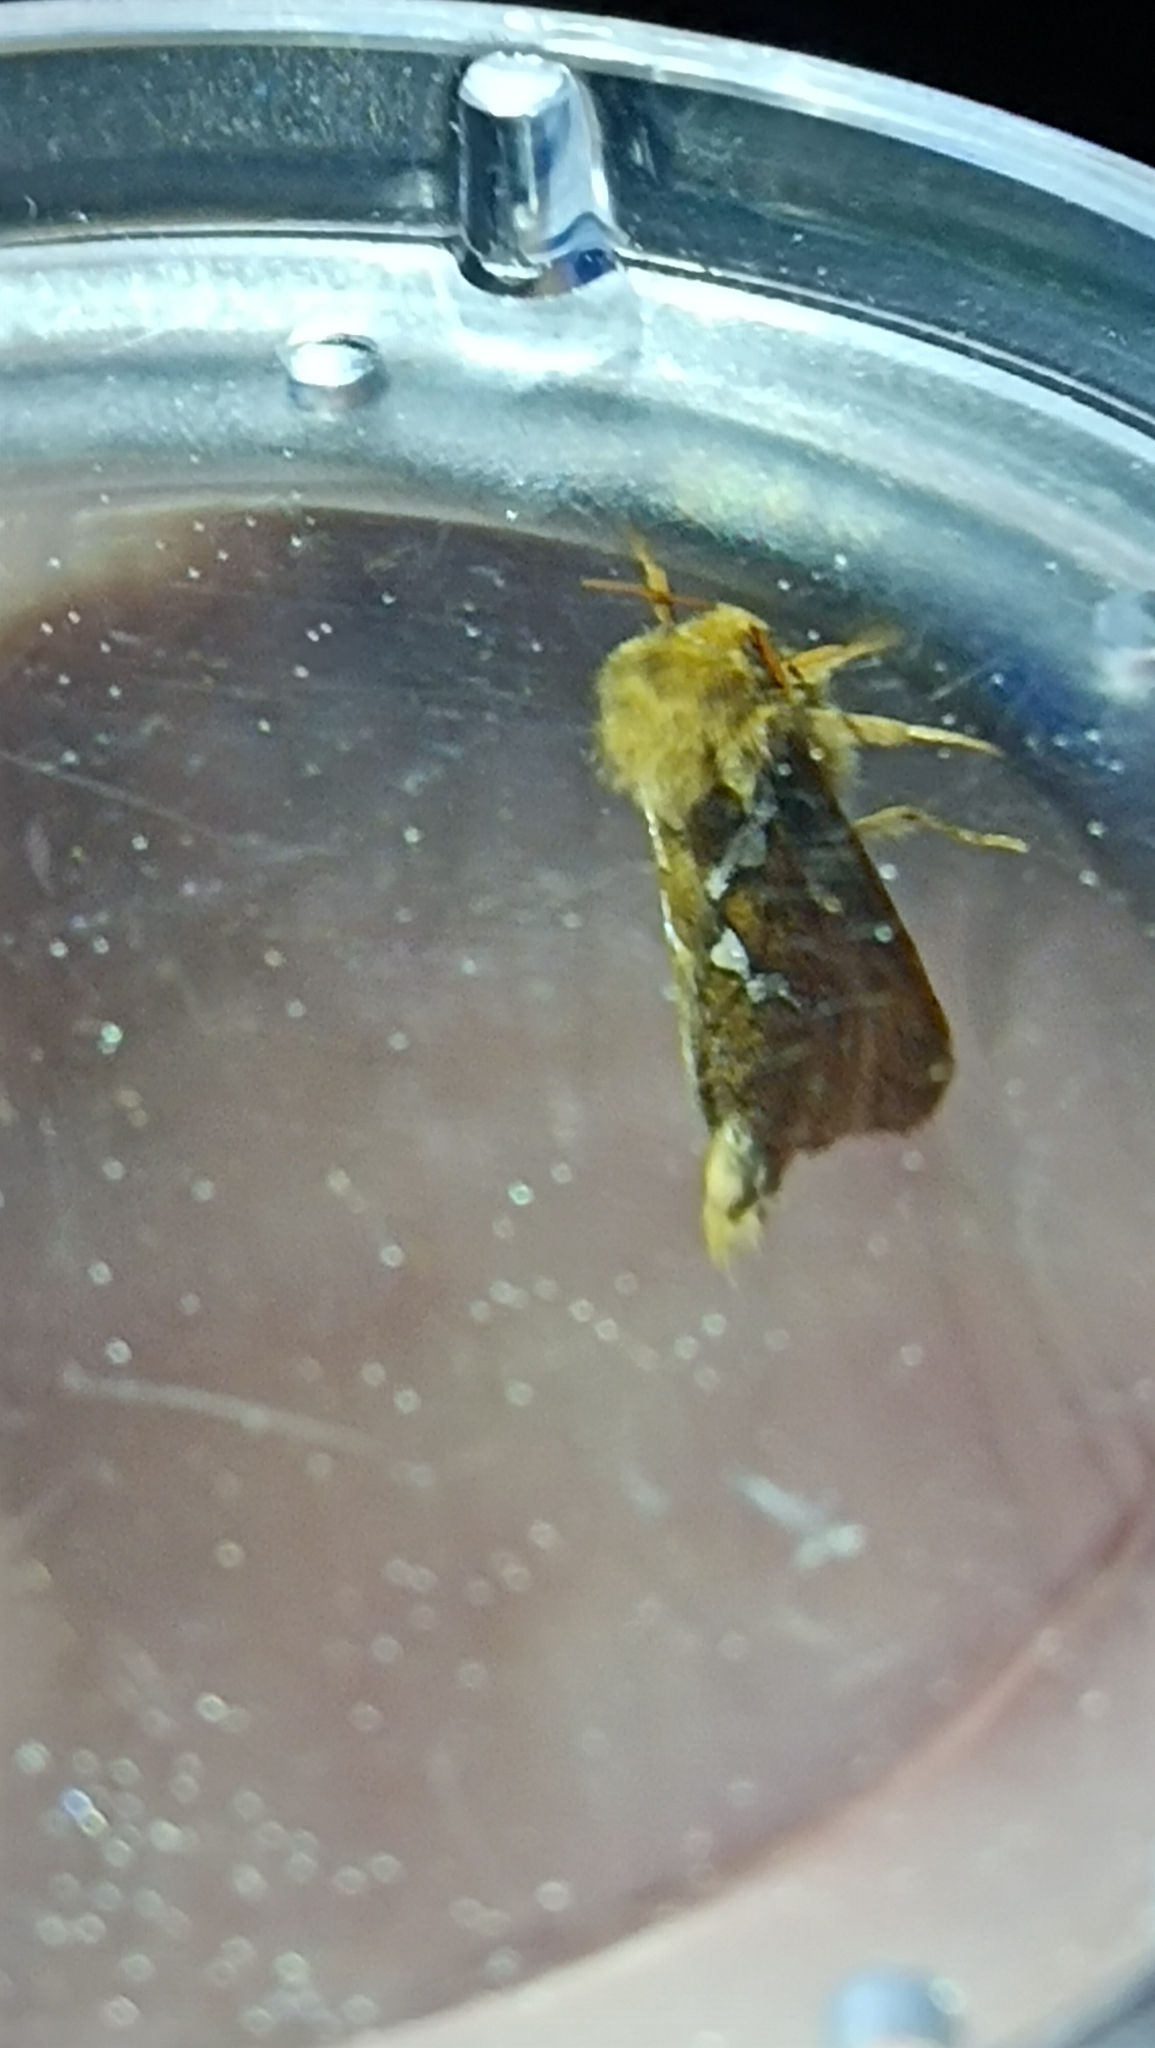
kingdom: Animalia
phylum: Arthropoda
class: Insecta
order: Lepidoptera
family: Hepialidae
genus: Korscheltellus
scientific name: Korscheltellus lupulina
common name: Common swift
